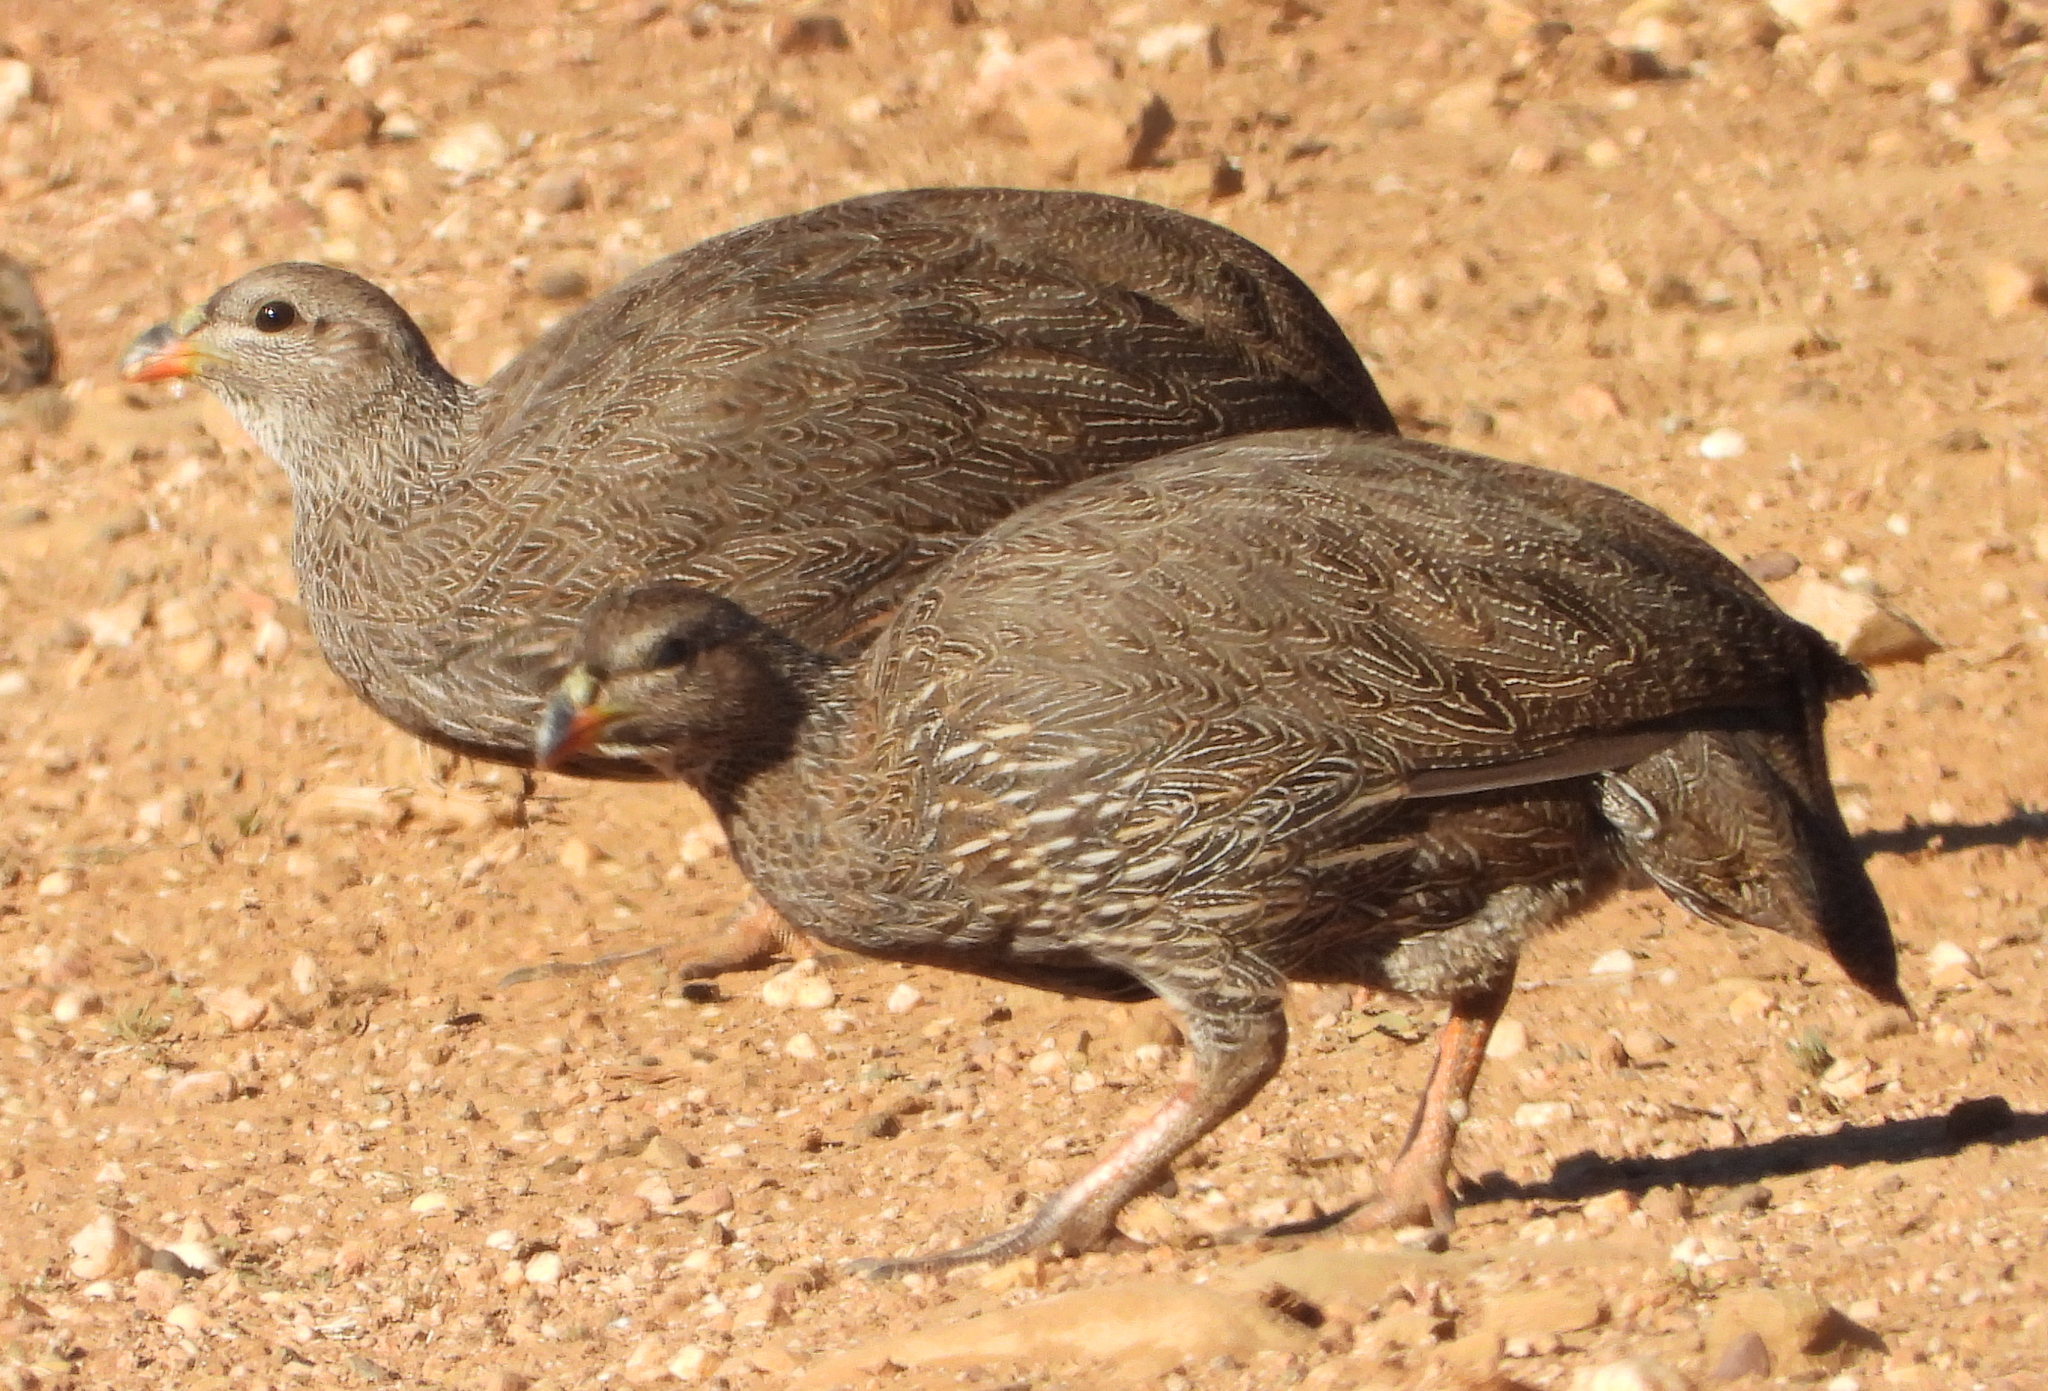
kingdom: Animalia
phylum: Chordata
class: Aves
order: Galliformes
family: Phasianidae
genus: Pternistis
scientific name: Pternistis capensis
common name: Cape spurfowl
